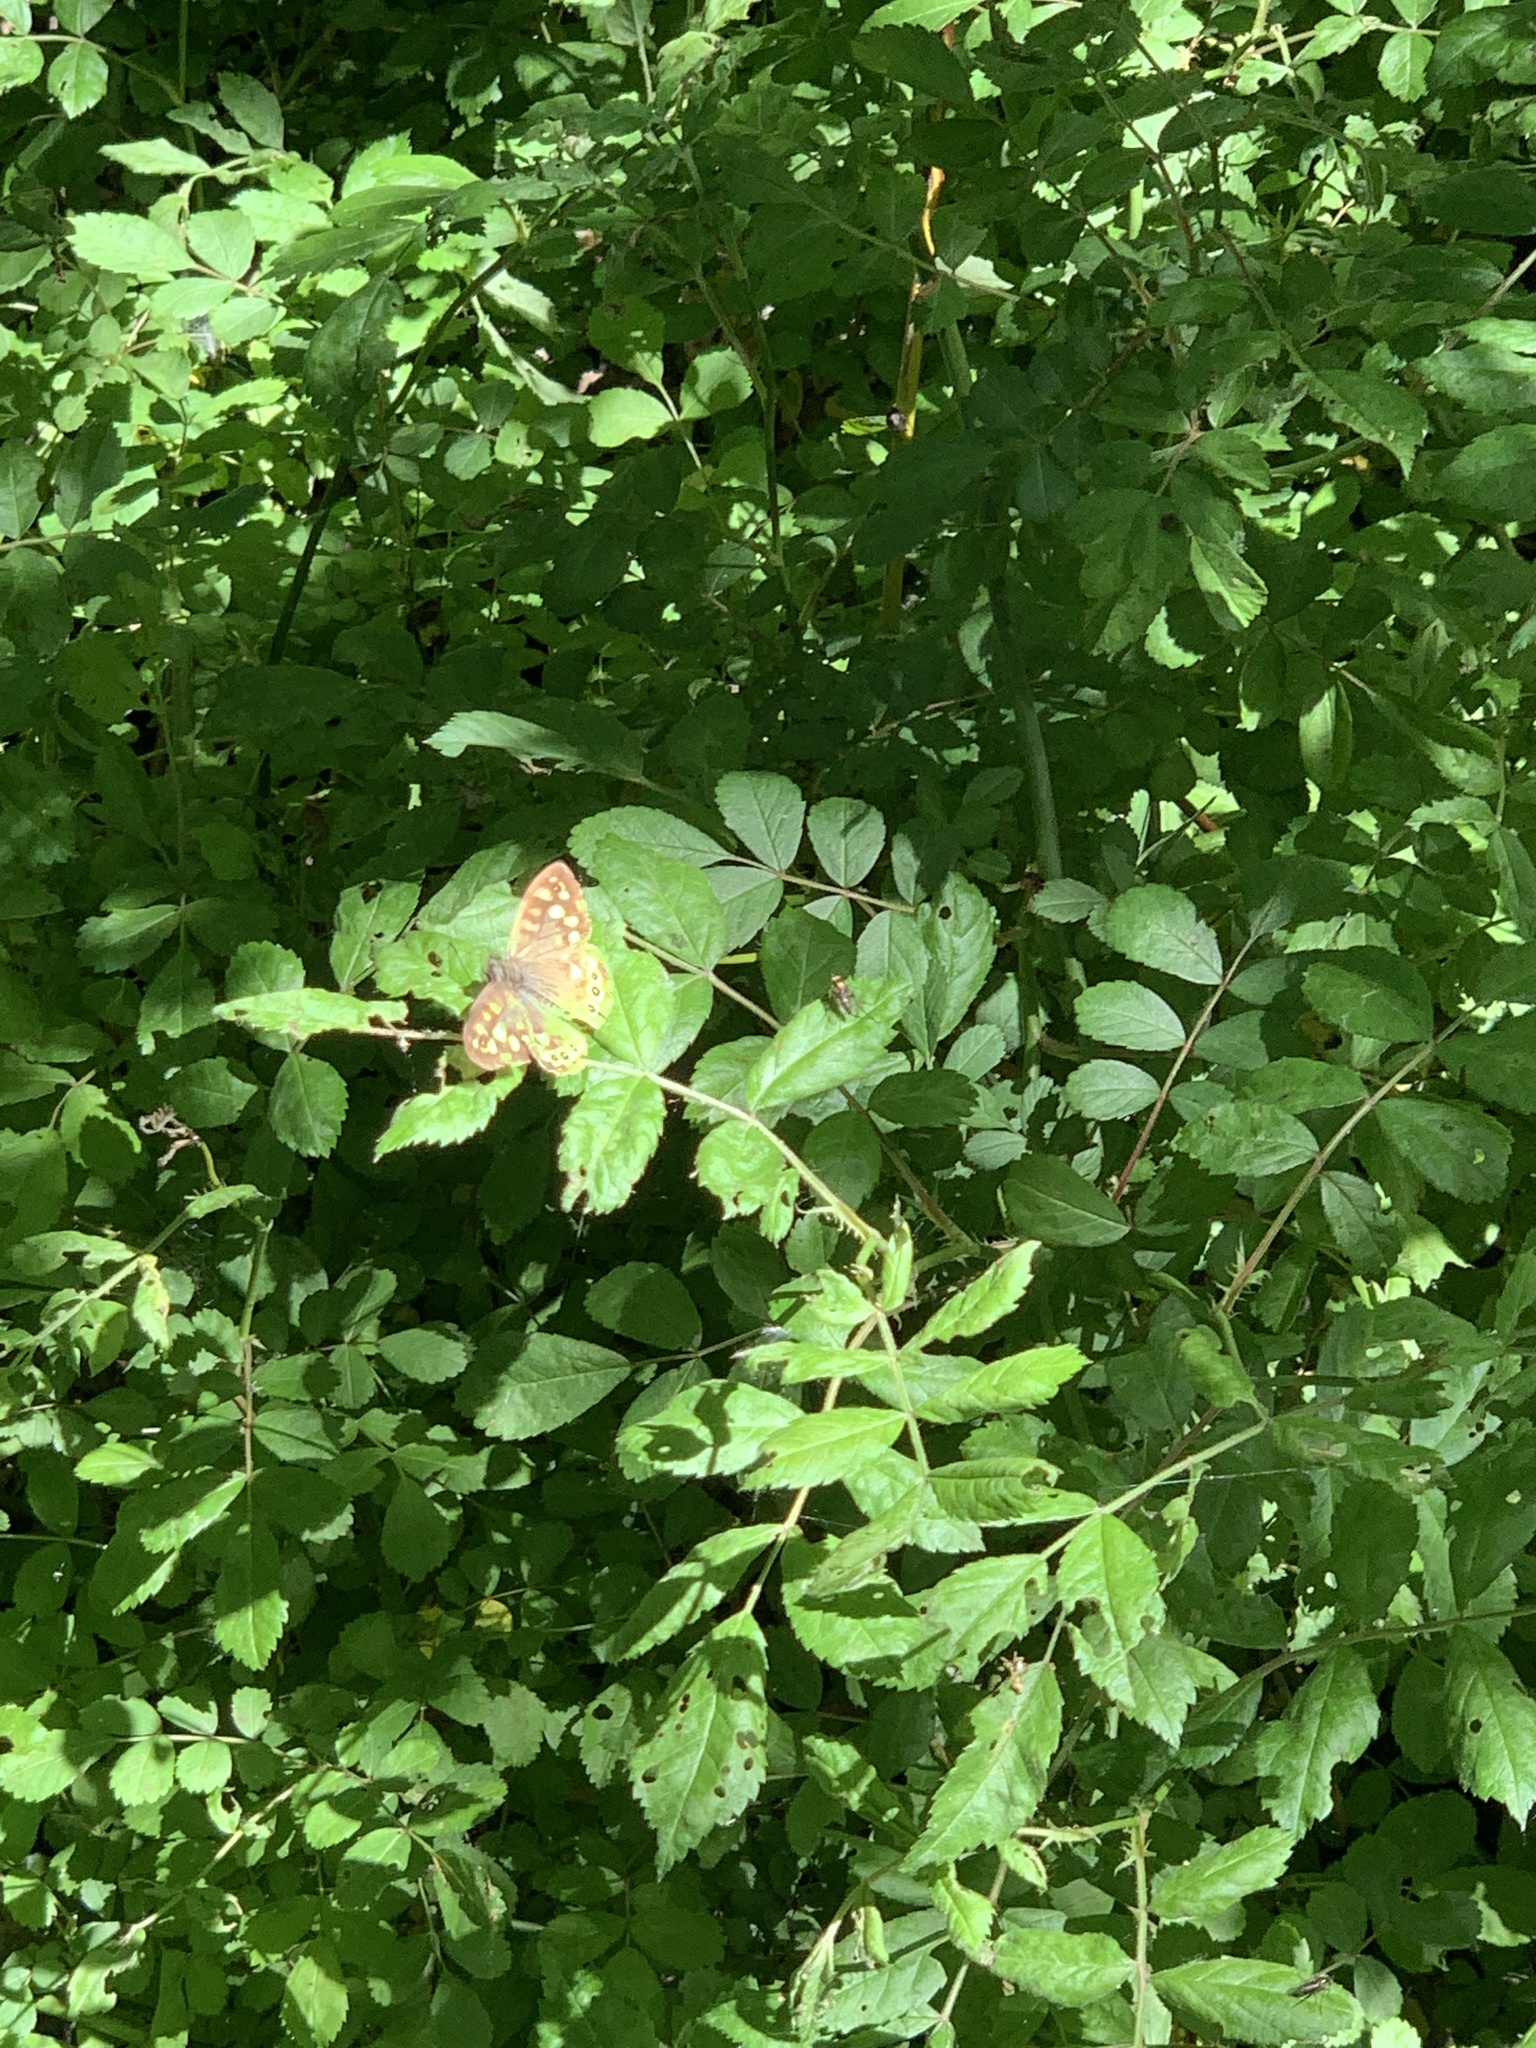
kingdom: Animalia
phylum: Arthropoda
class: Insecta
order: Lepidoptera
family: Nymphalidae
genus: Pararge
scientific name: Pararge aegeria
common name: Speckled wood
